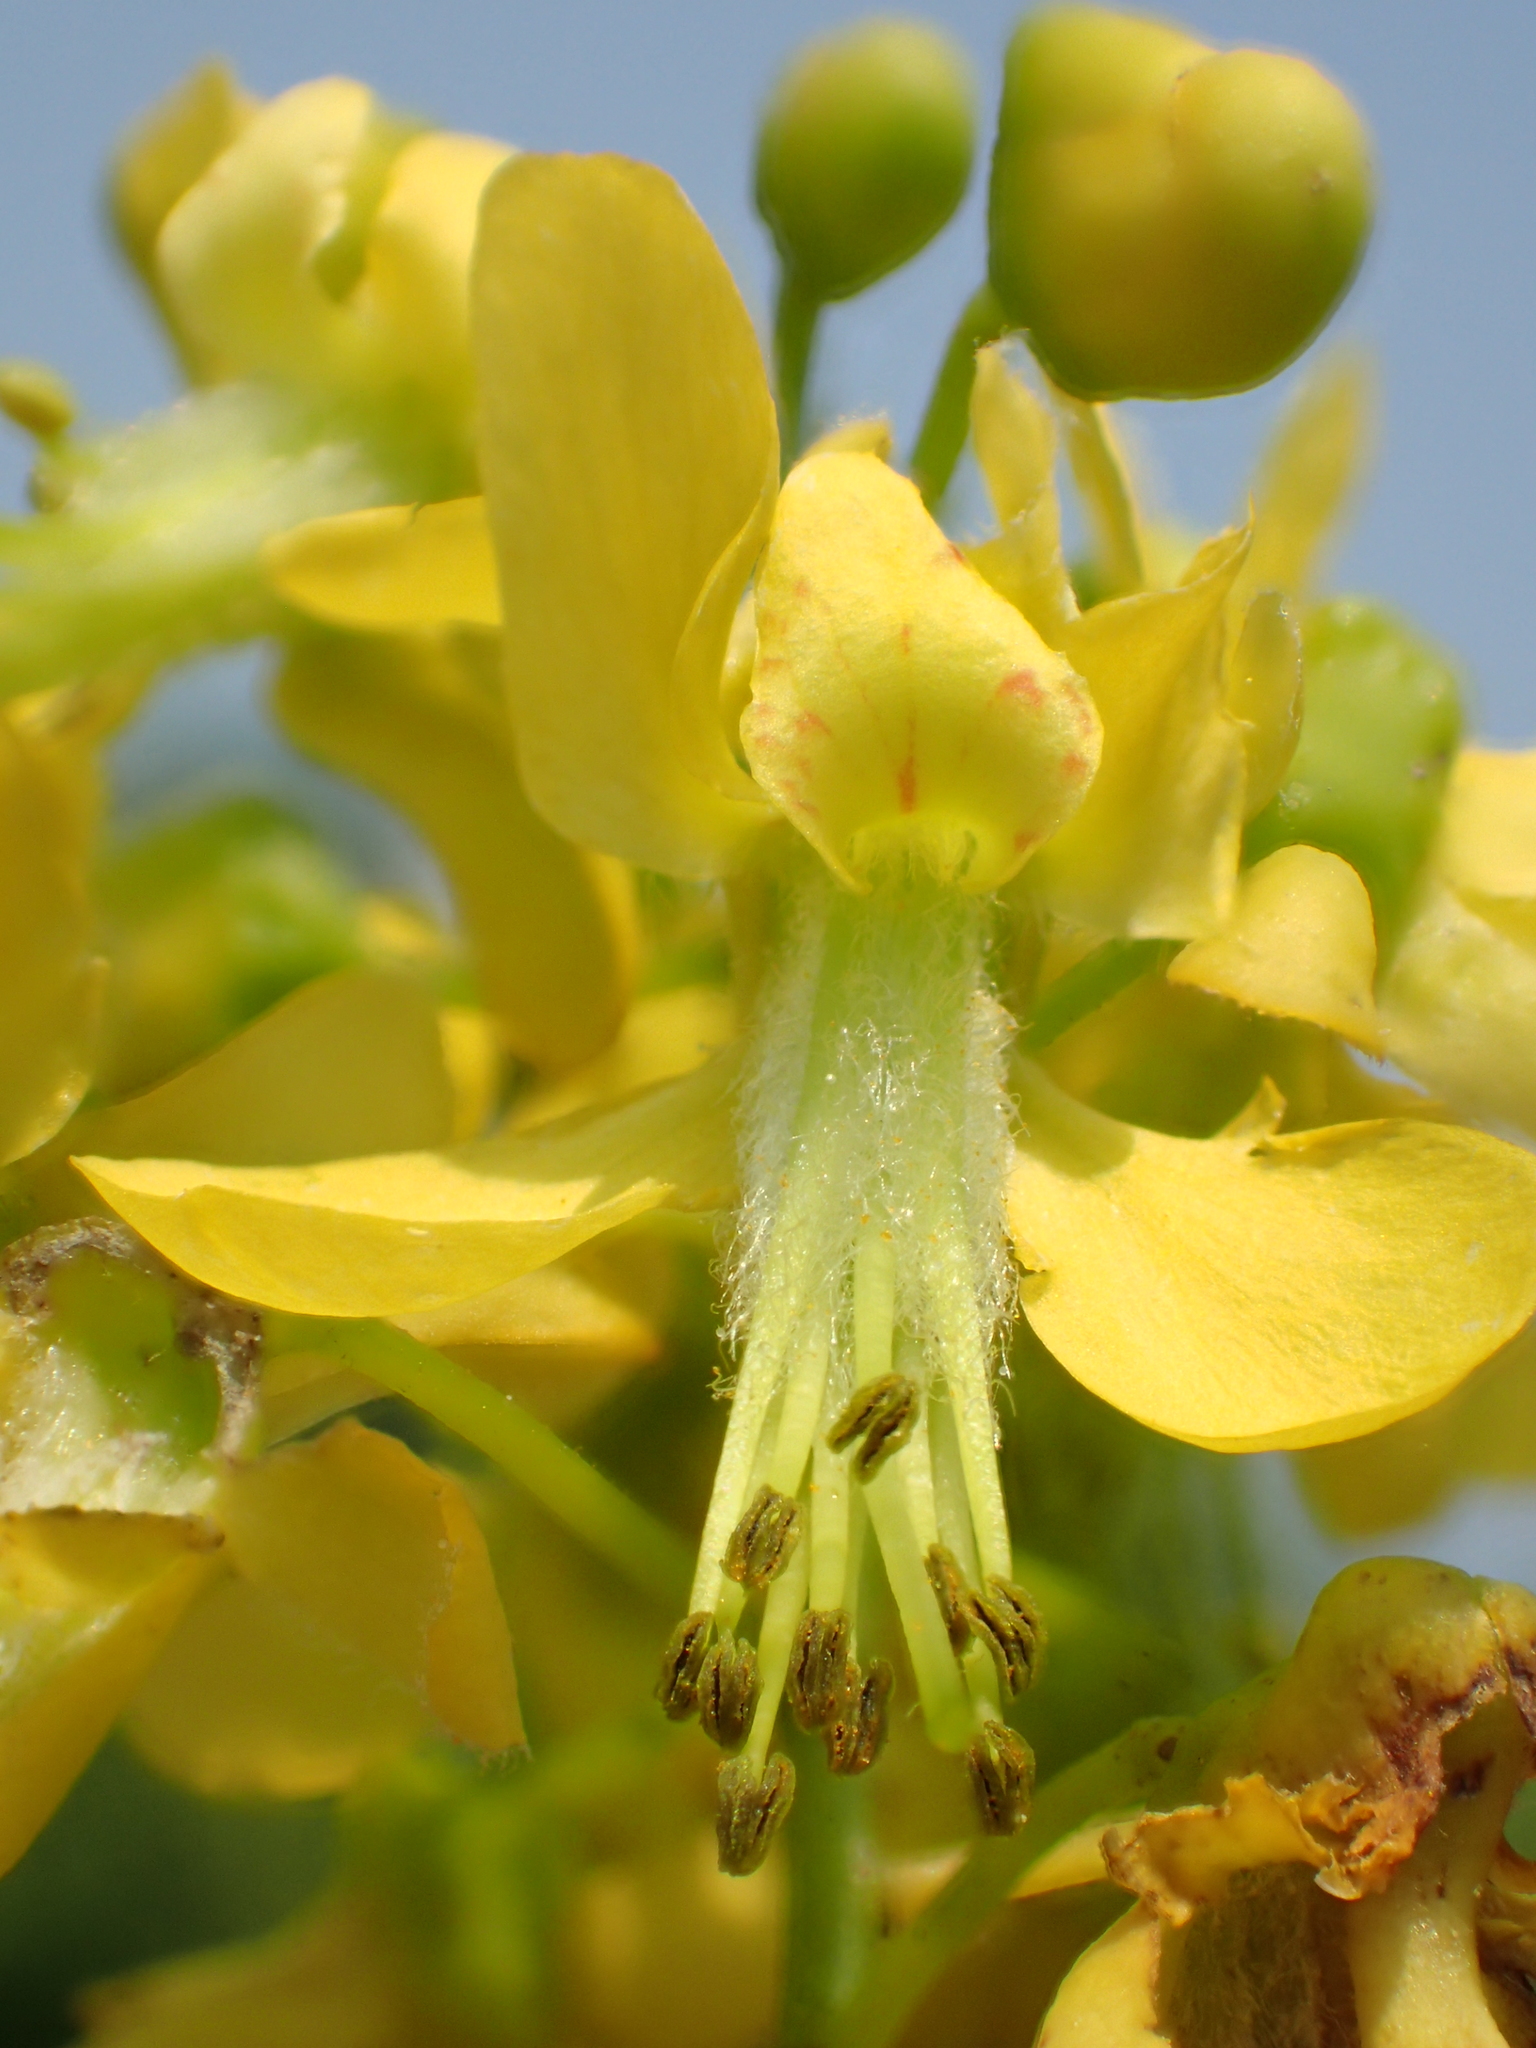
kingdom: Plantae
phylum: Tracheophyta
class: Magnoliopsida
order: Fabales
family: Fabaceae
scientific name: Fabaceae
